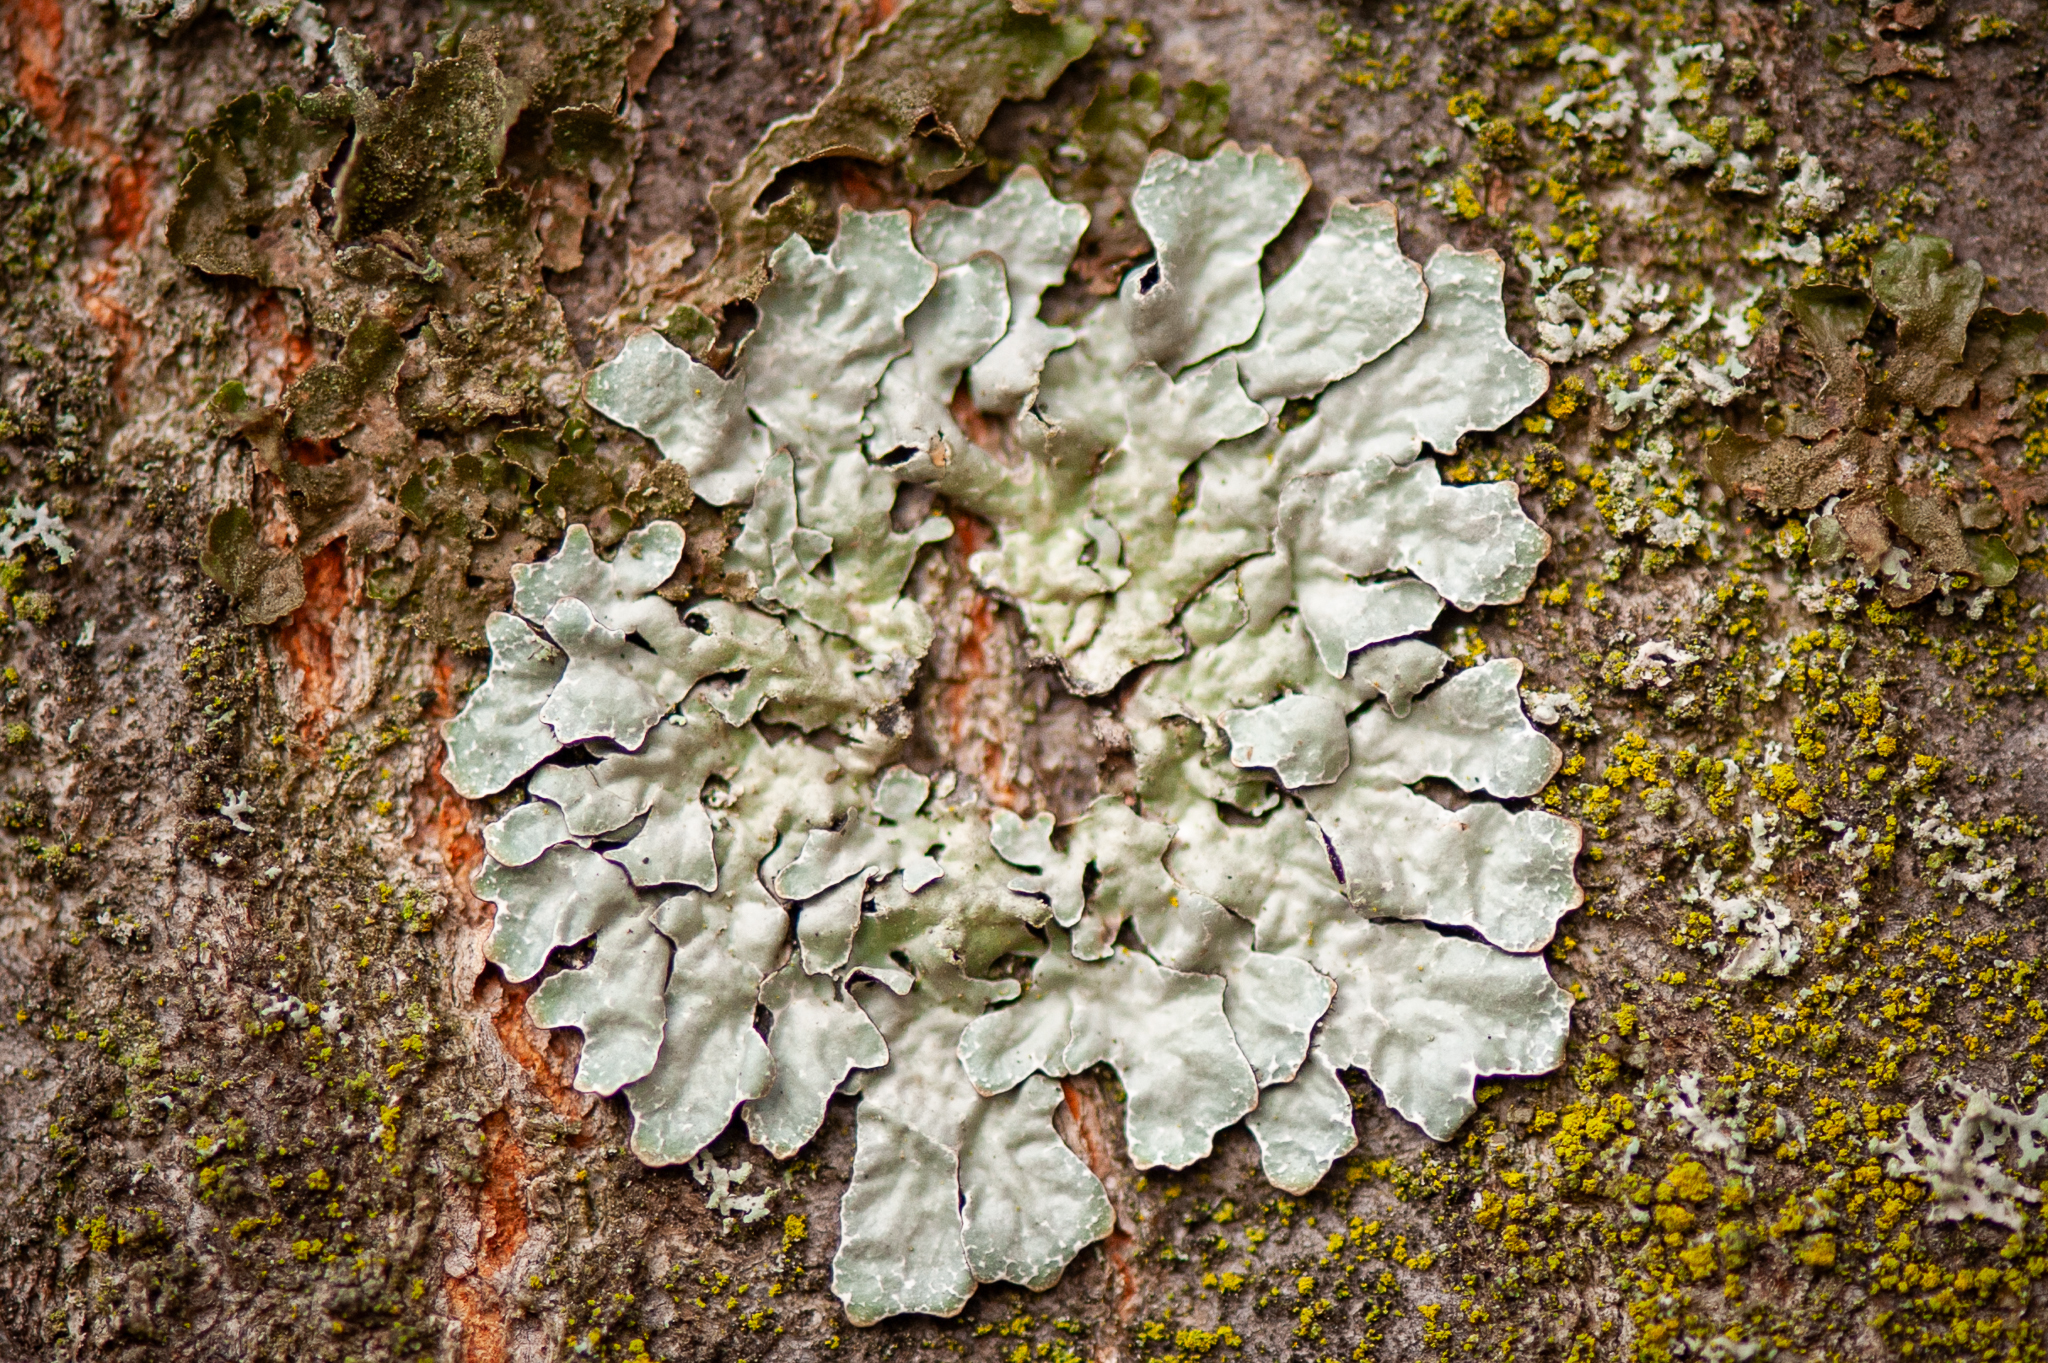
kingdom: Fungi
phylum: Ascomycota
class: Lecanoromycetes
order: Lecanorales
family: Parmeliaceae
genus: Parmelia
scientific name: Parmelia sulcata
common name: Netted shield lichen
